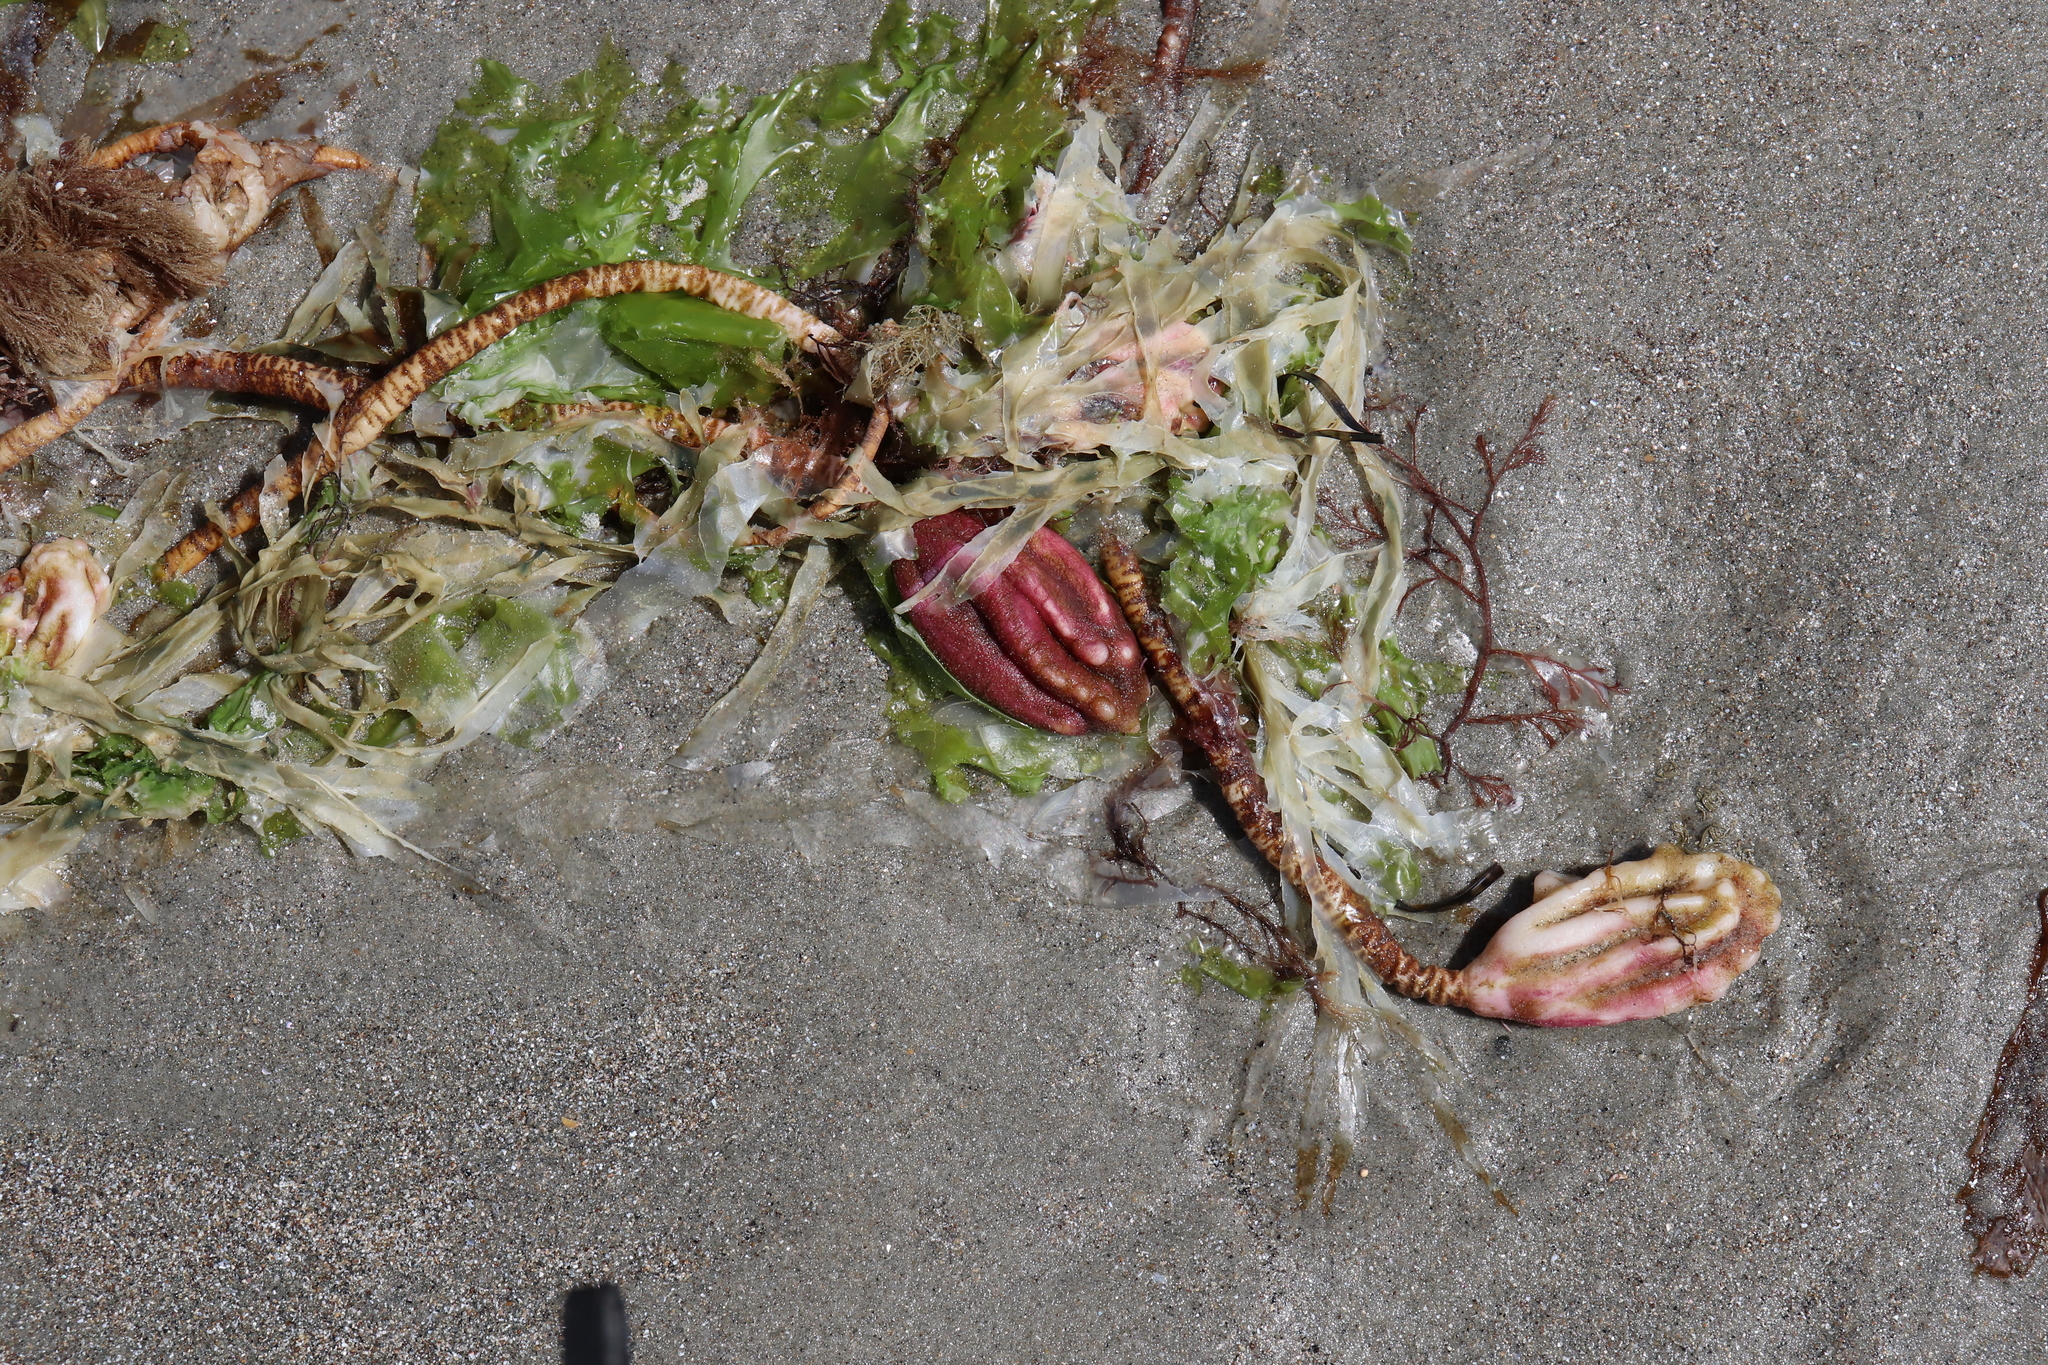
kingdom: Animalia
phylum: Chordata
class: Ascidiacea
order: Stolidobranchia
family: Pyuridae
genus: Pyura
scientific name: Pyura pachydermatina
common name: Sea tulip
